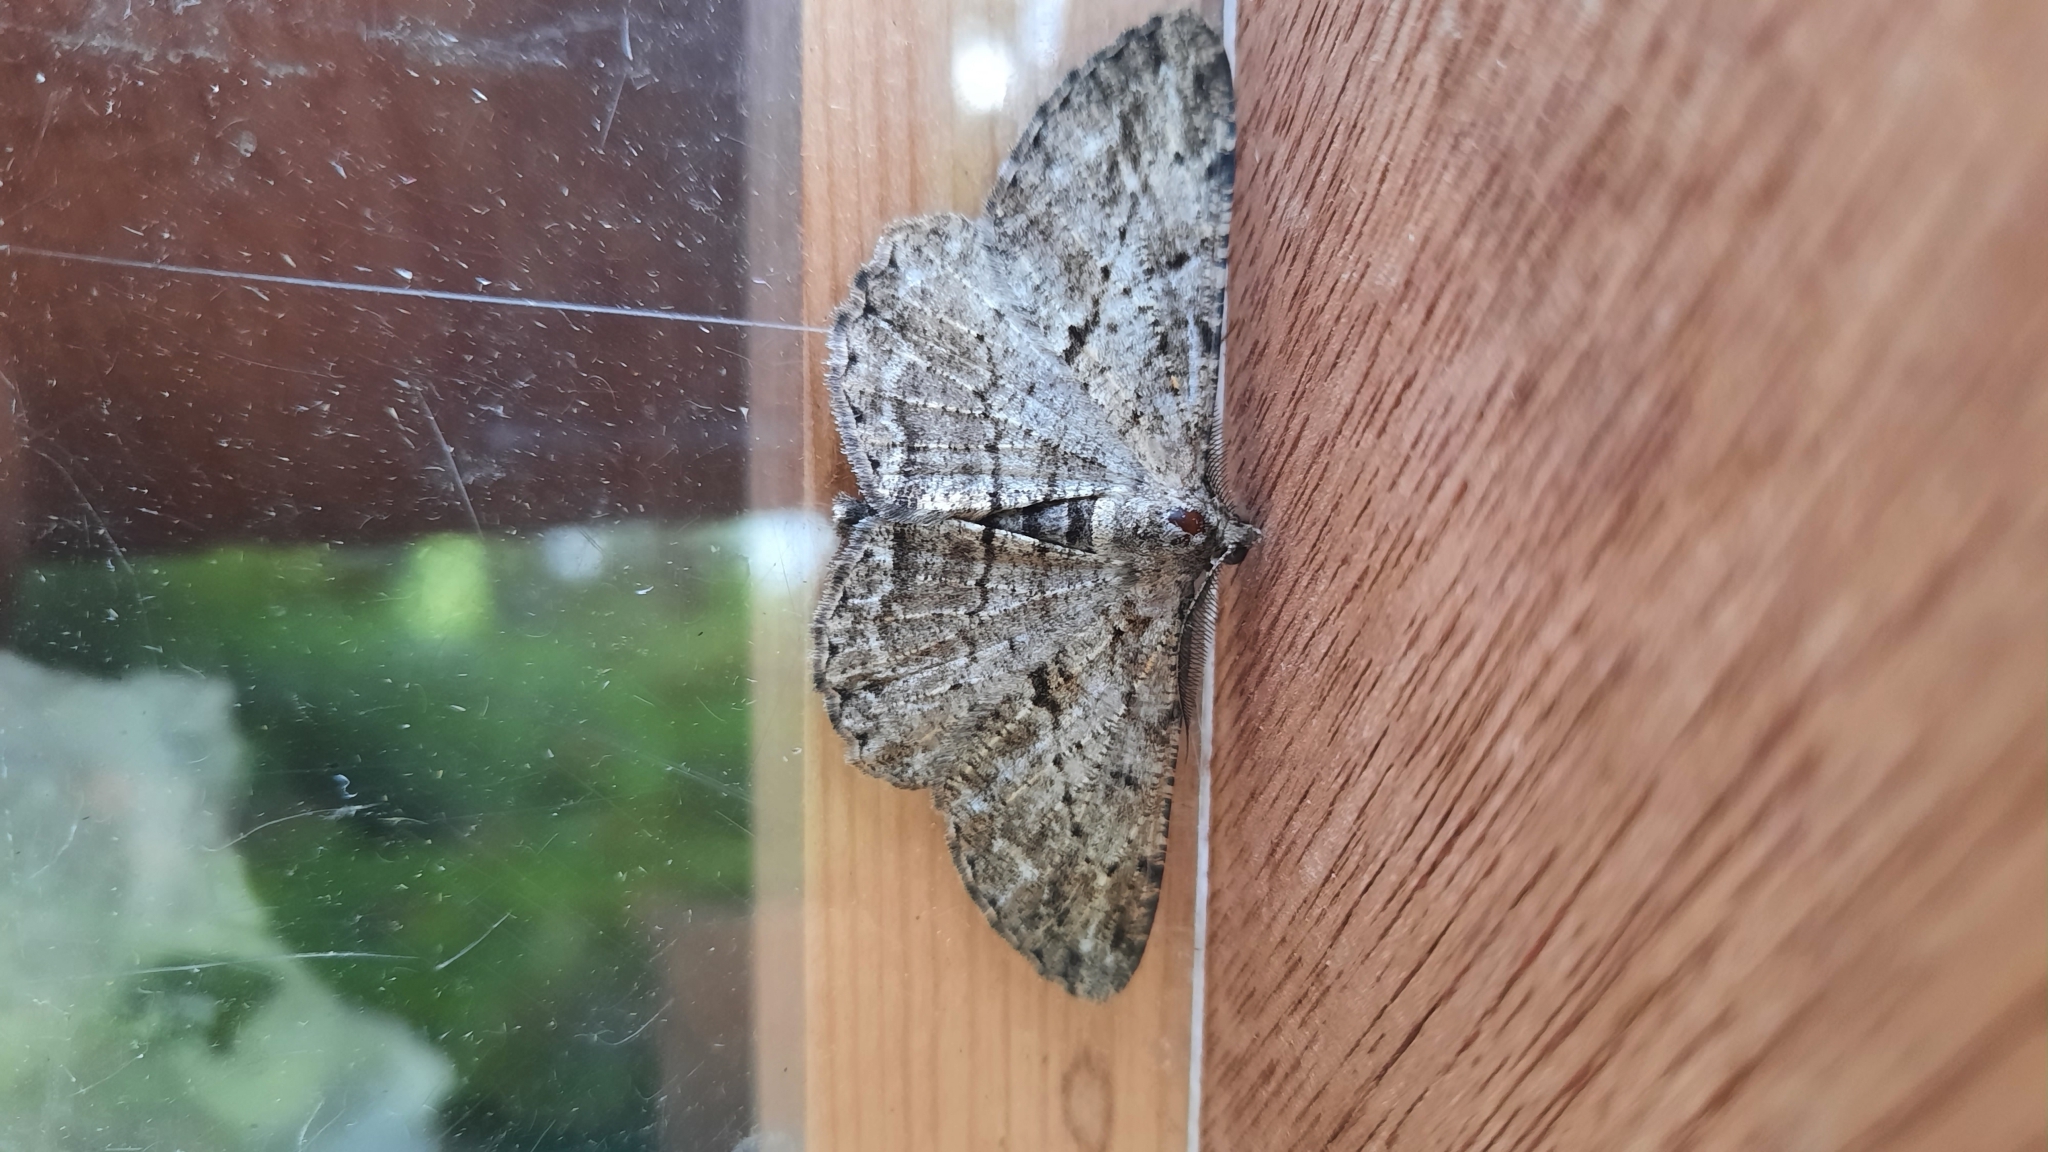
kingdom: Animalia
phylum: Arthropoda
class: Insecta
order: Lepidoptera
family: Geometridae
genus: Peribatodes
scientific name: Peribatodes rhomboidaria
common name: Willow beauty
